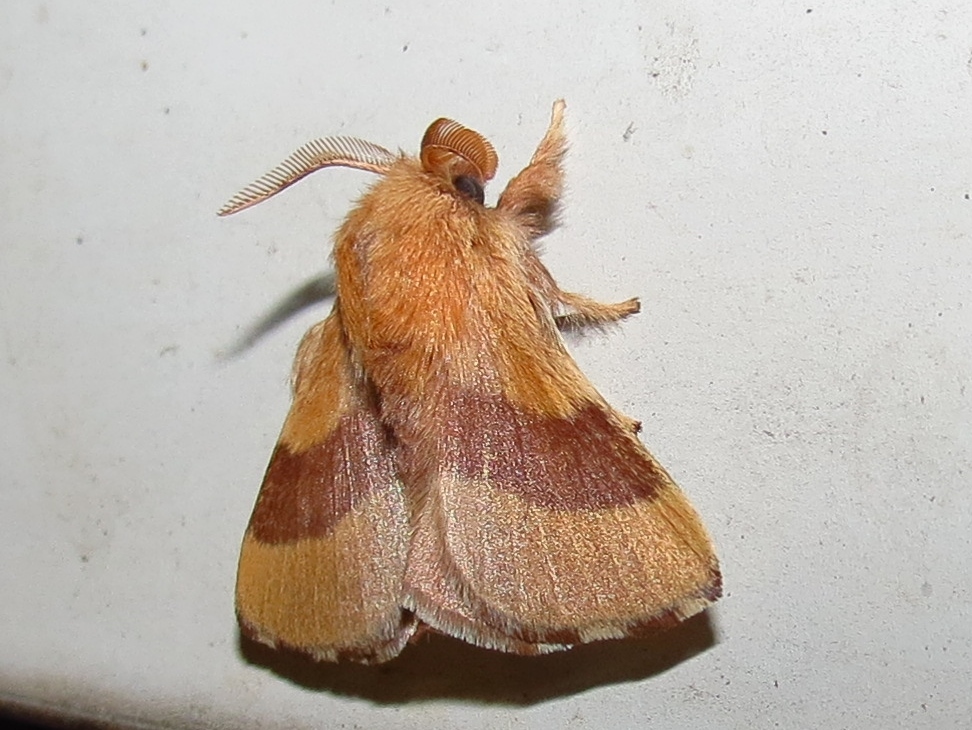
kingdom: Animalia
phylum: Arthropoda
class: Insecta
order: Lepidoptera
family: Lasiocampidae
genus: Malacosoma
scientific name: Malacosoma disstria
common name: Forest tent caterpillar
